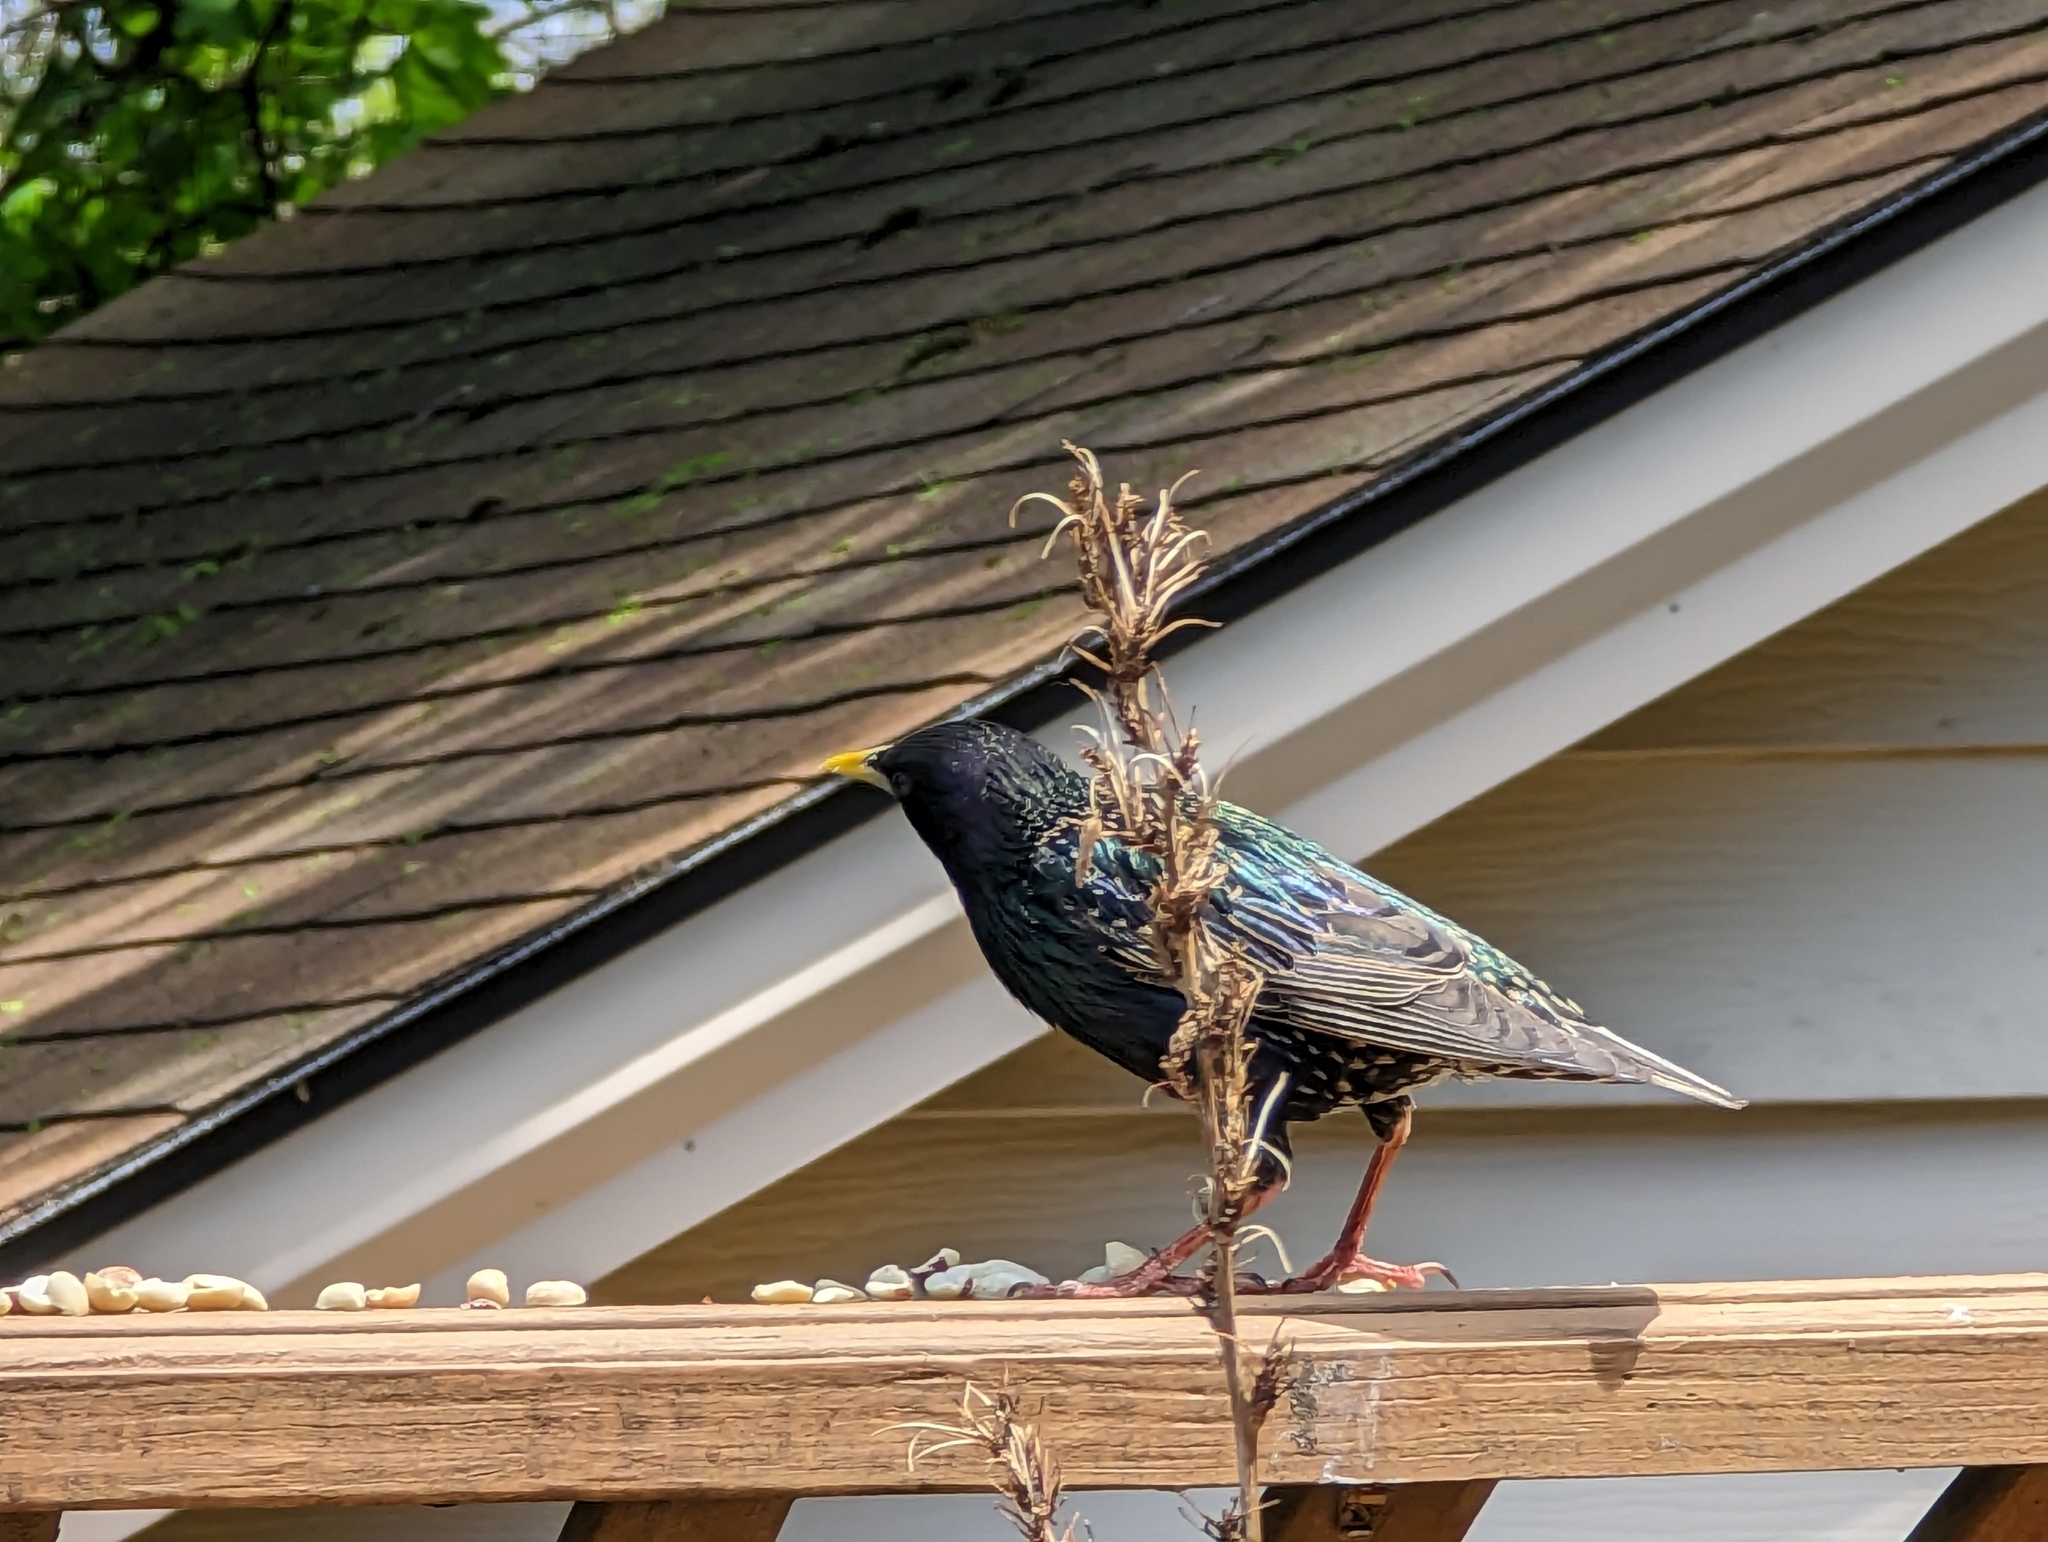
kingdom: Animalia
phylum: Chordata
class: Aves
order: Passeriformes
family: Sturnidae
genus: Sturnus
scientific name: Sturnus vulgaris
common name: Common starling
